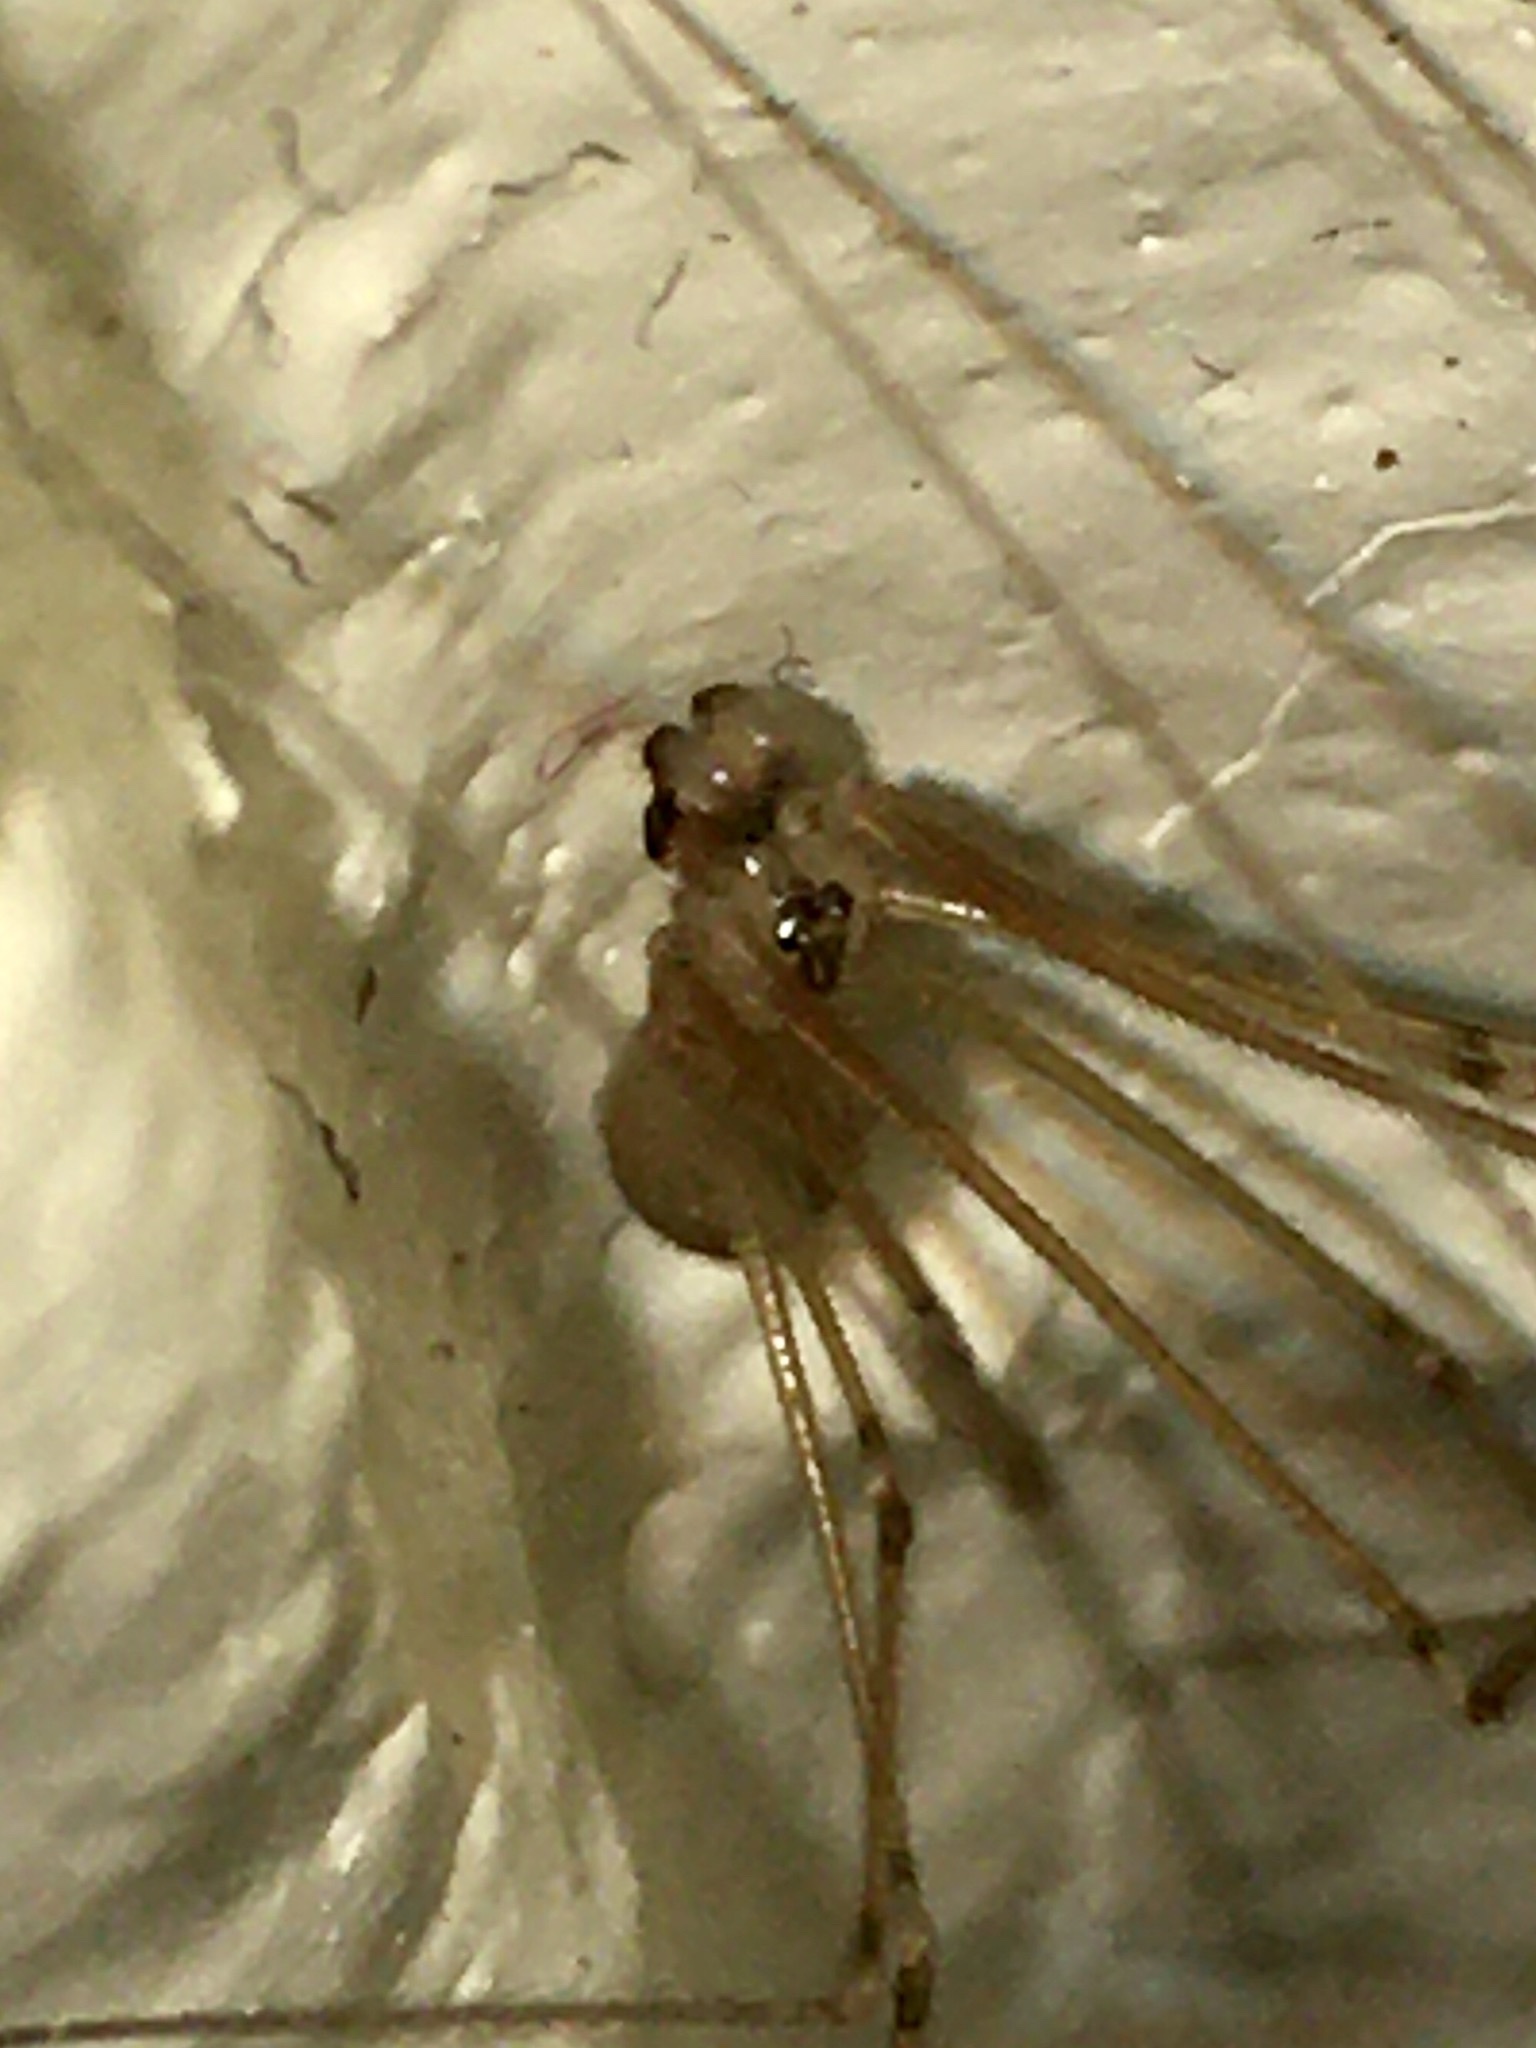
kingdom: Animalia
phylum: Arthropoda
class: Arachnida
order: Araneae
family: Pholcidae
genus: Pholcus
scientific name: Pholcus phalangioides
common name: Longbodied cellar spider
